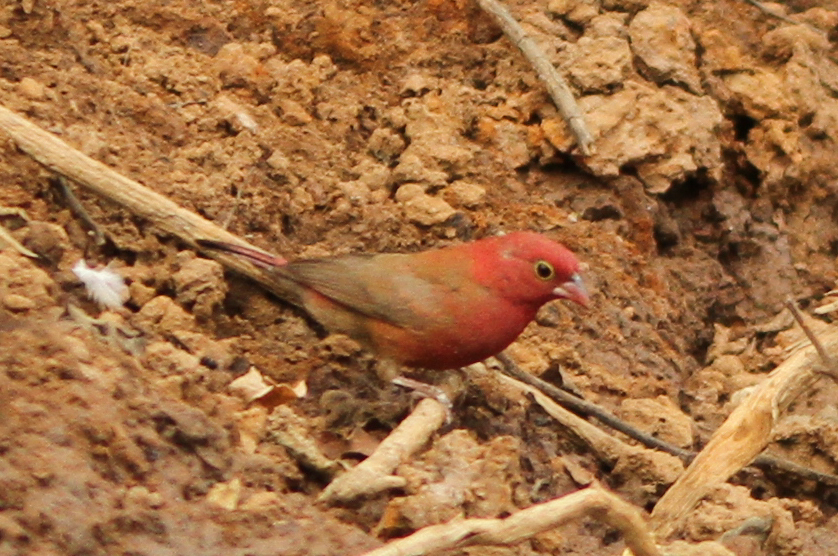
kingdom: Animalia
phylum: Chordata
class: Aves
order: Passeriformes
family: Estrildidae
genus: Lagonosticta
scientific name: Lagonosticta senegala
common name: Red-billed firefinch
